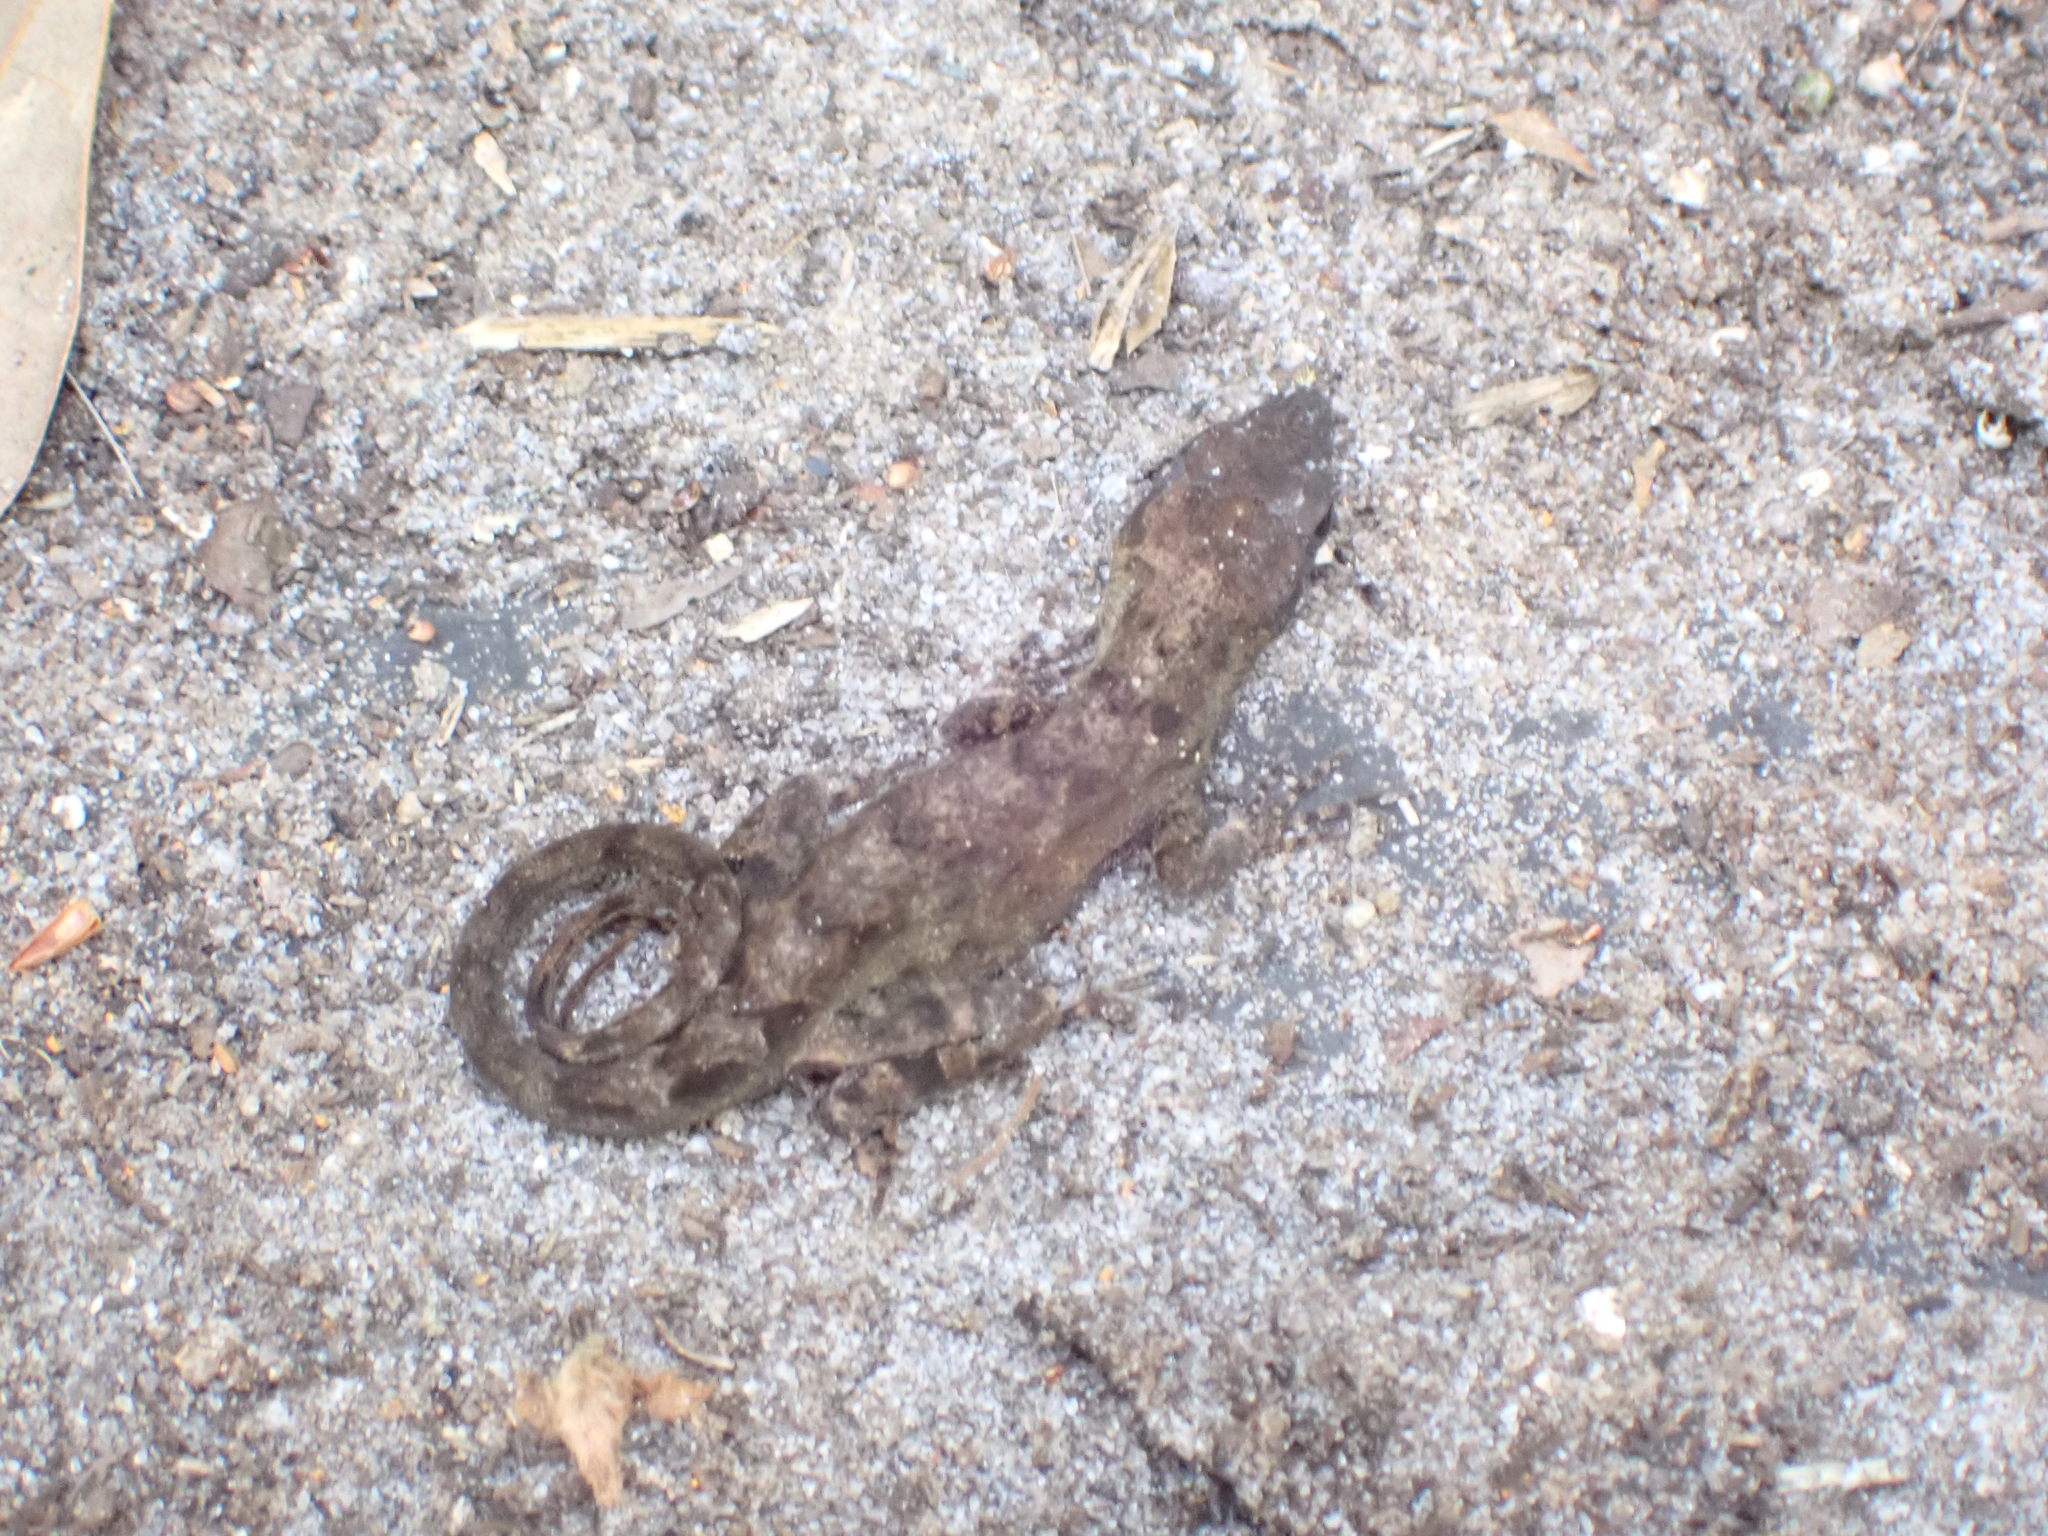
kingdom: Animalia
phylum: Chordata
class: Squamata
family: Dactyloidae
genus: Anolis
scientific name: Anolis sagrei
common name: Brown anole
